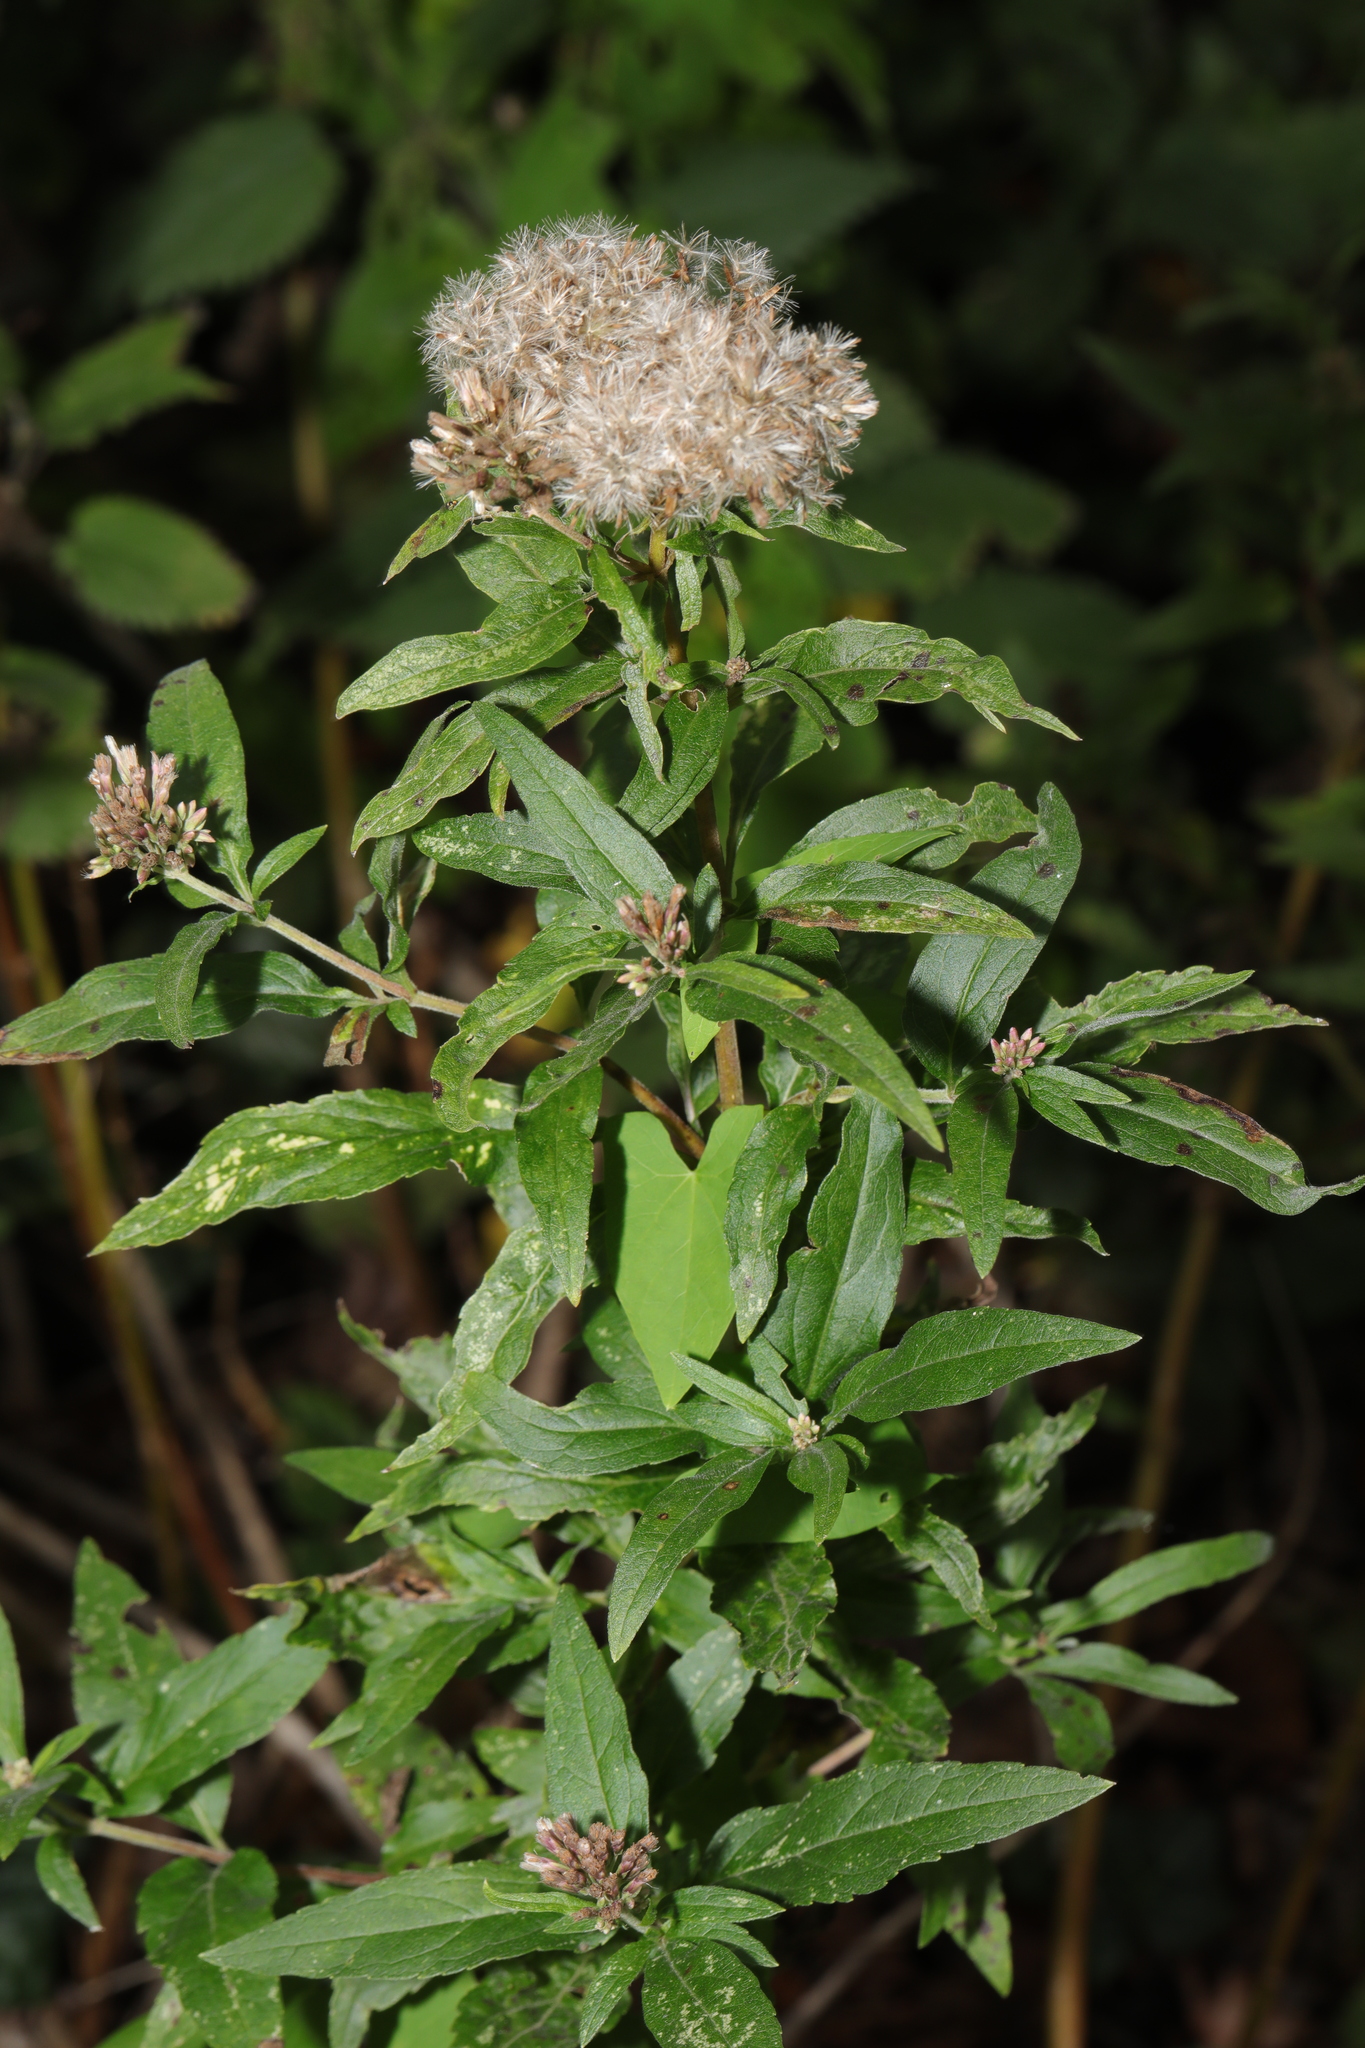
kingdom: Plantae
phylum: Tracheophyta
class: Magnoliopsida
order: Asterales
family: Asteraceae
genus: Eupatorium
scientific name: Eupatorium cannabinum
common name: Hemp-agrimony
